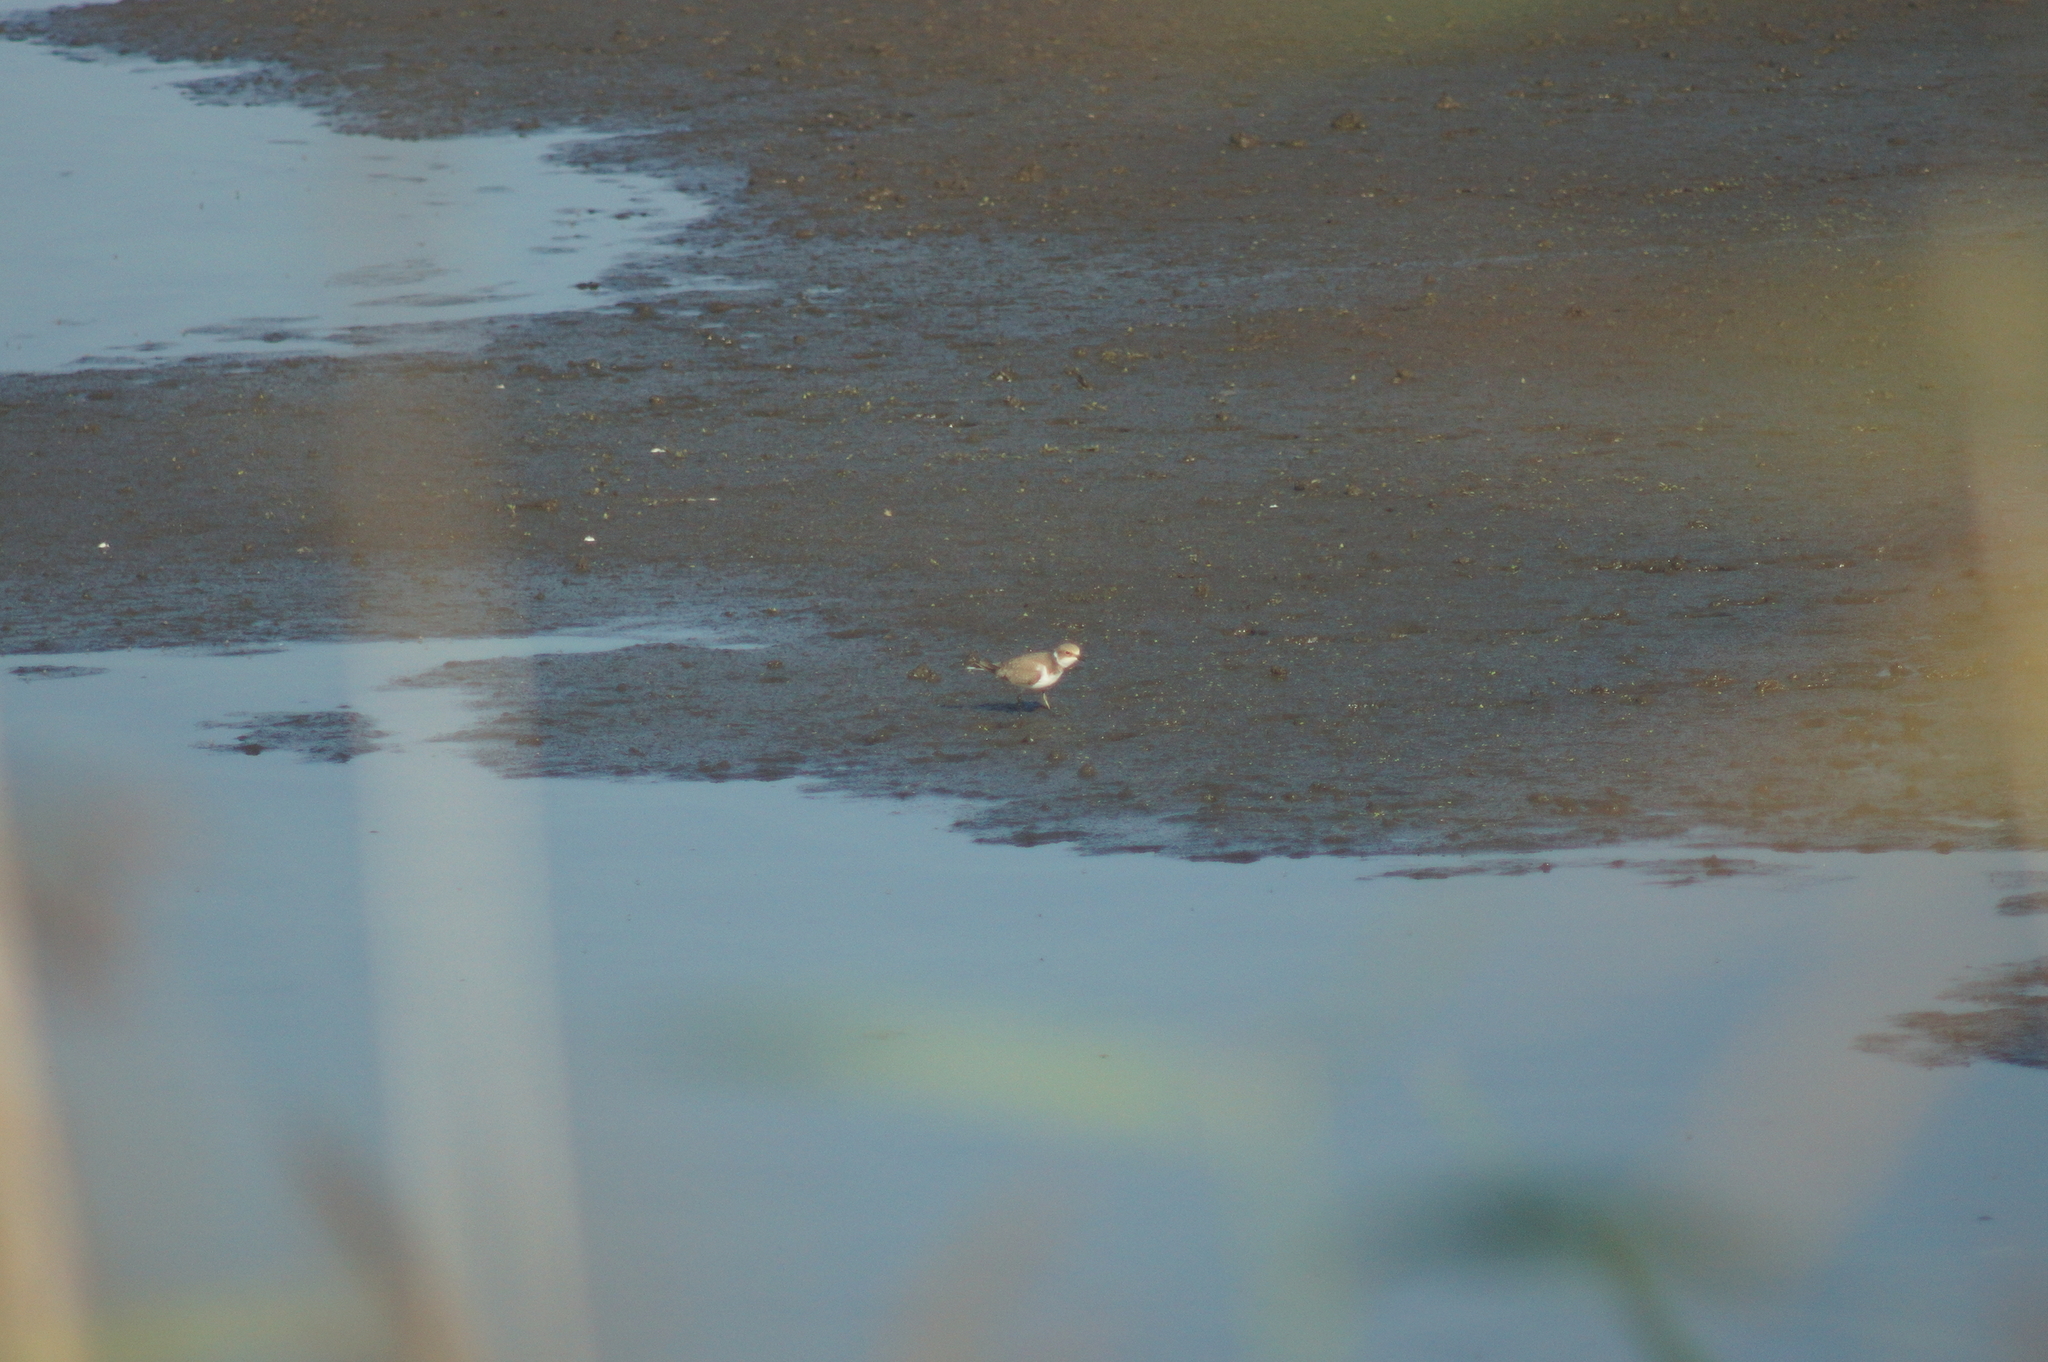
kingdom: Animalia
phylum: Chordata
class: Aves
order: Charadriiformes
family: Charadriidae
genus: Charadrius
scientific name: Charadrius dubius
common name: Little ringed plover
